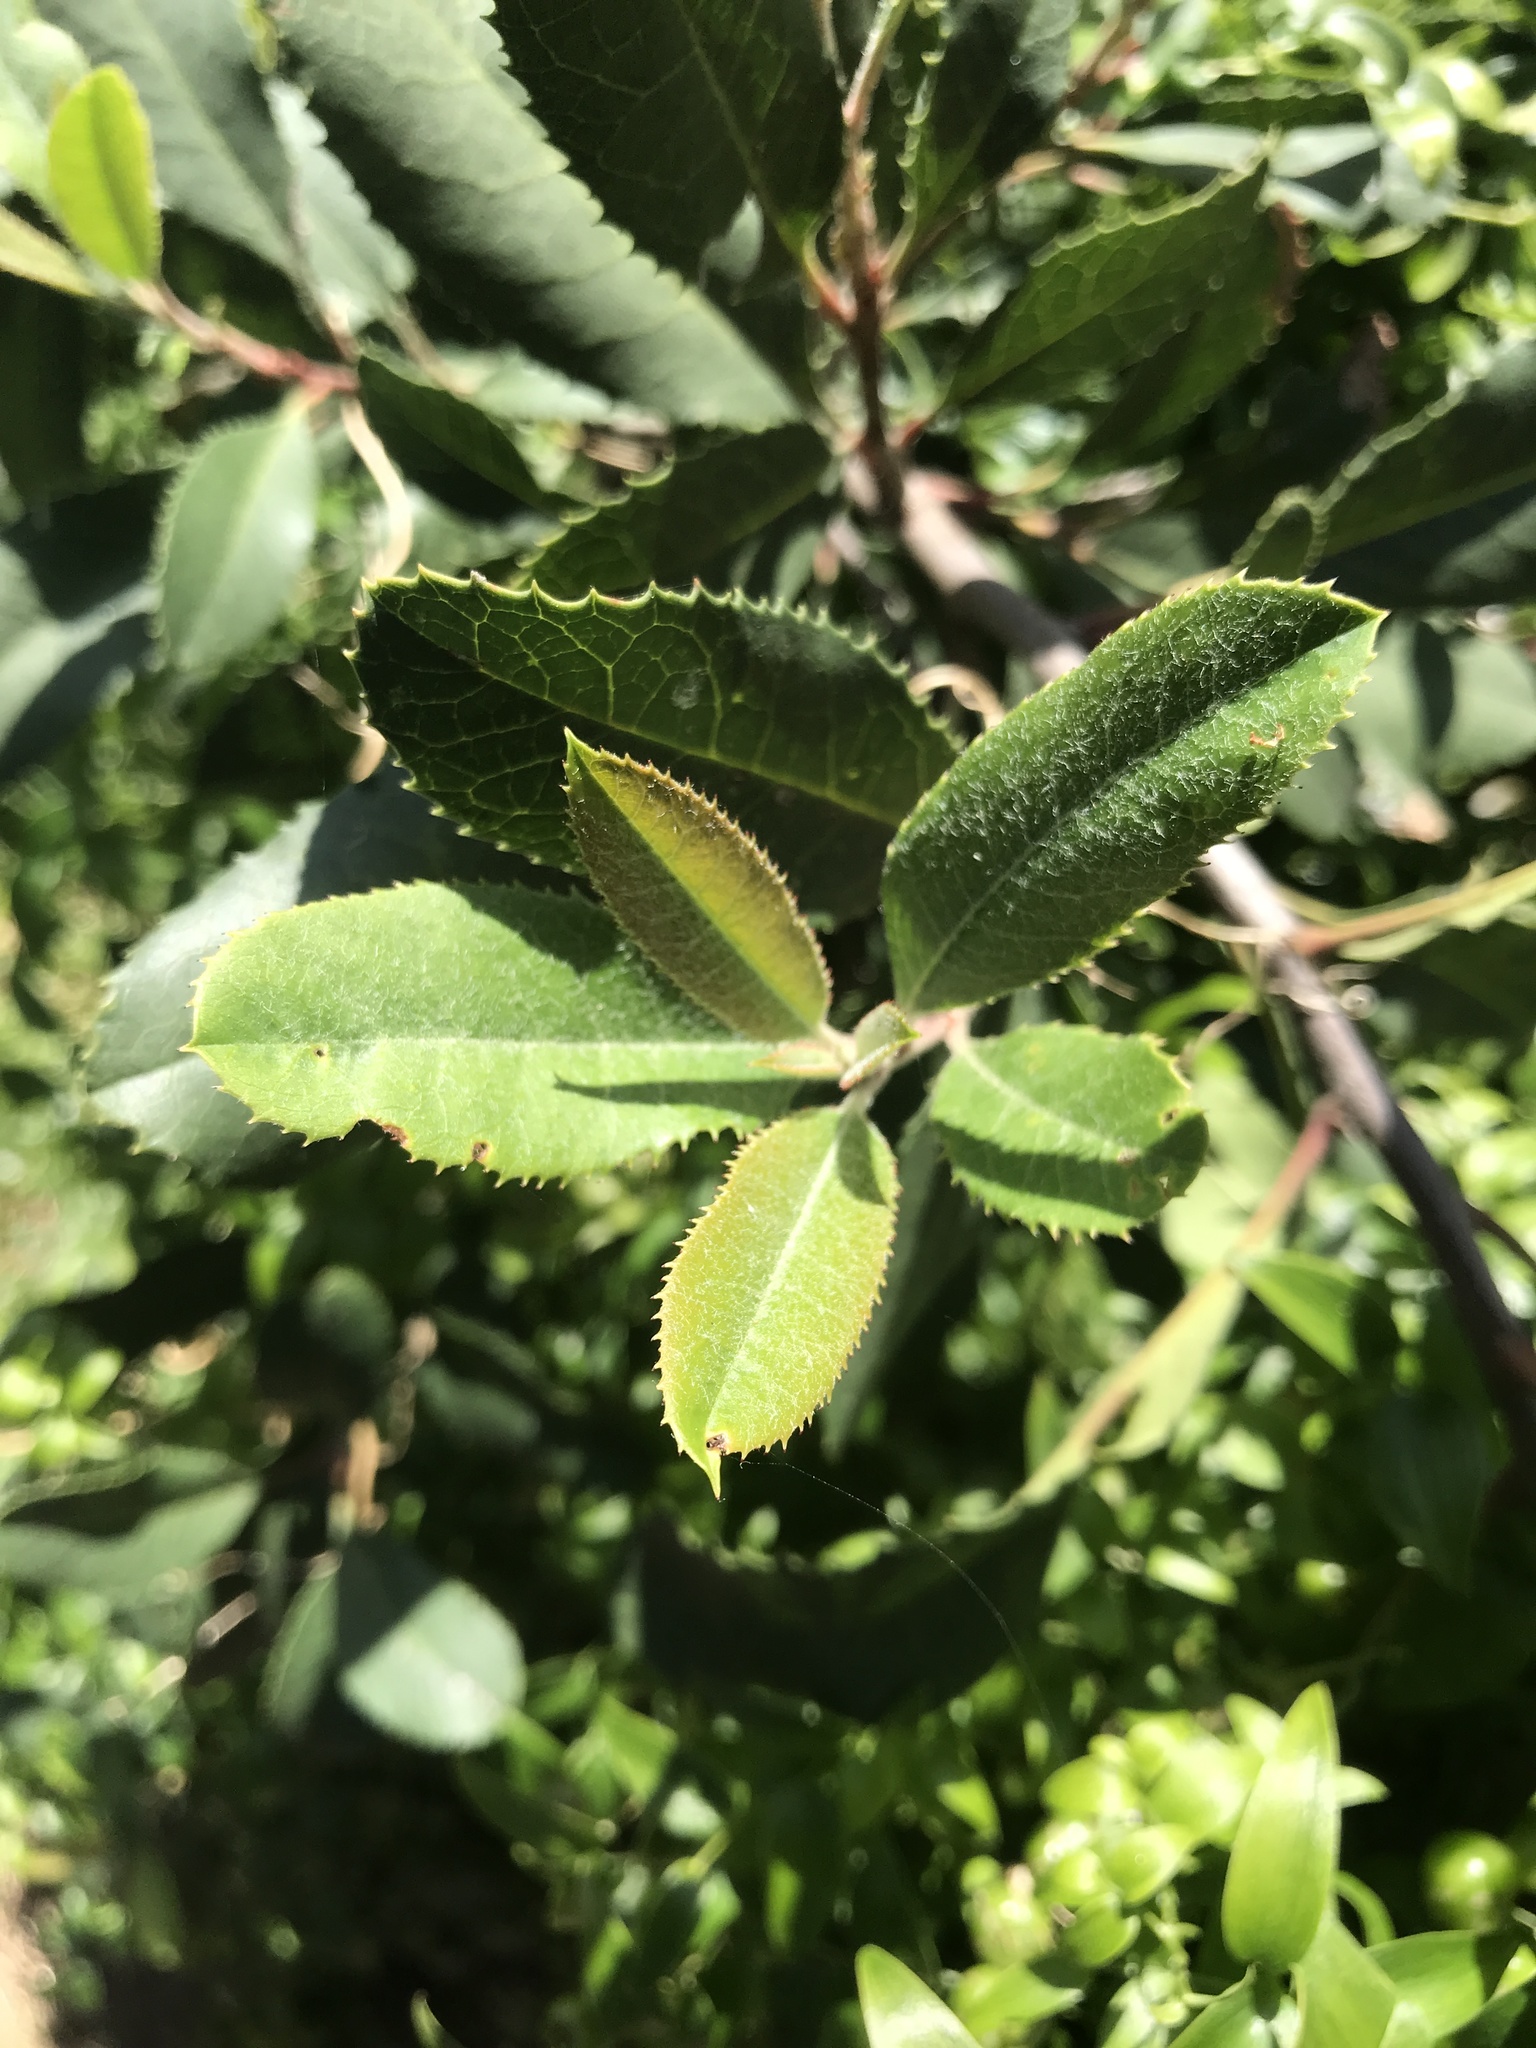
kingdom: Plantae
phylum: Tracheophyta
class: Magnoliopsida
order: Rosales
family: Rosaceae
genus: Heteromeles
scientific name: Heteromeles arbutifolia
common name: California-holly
